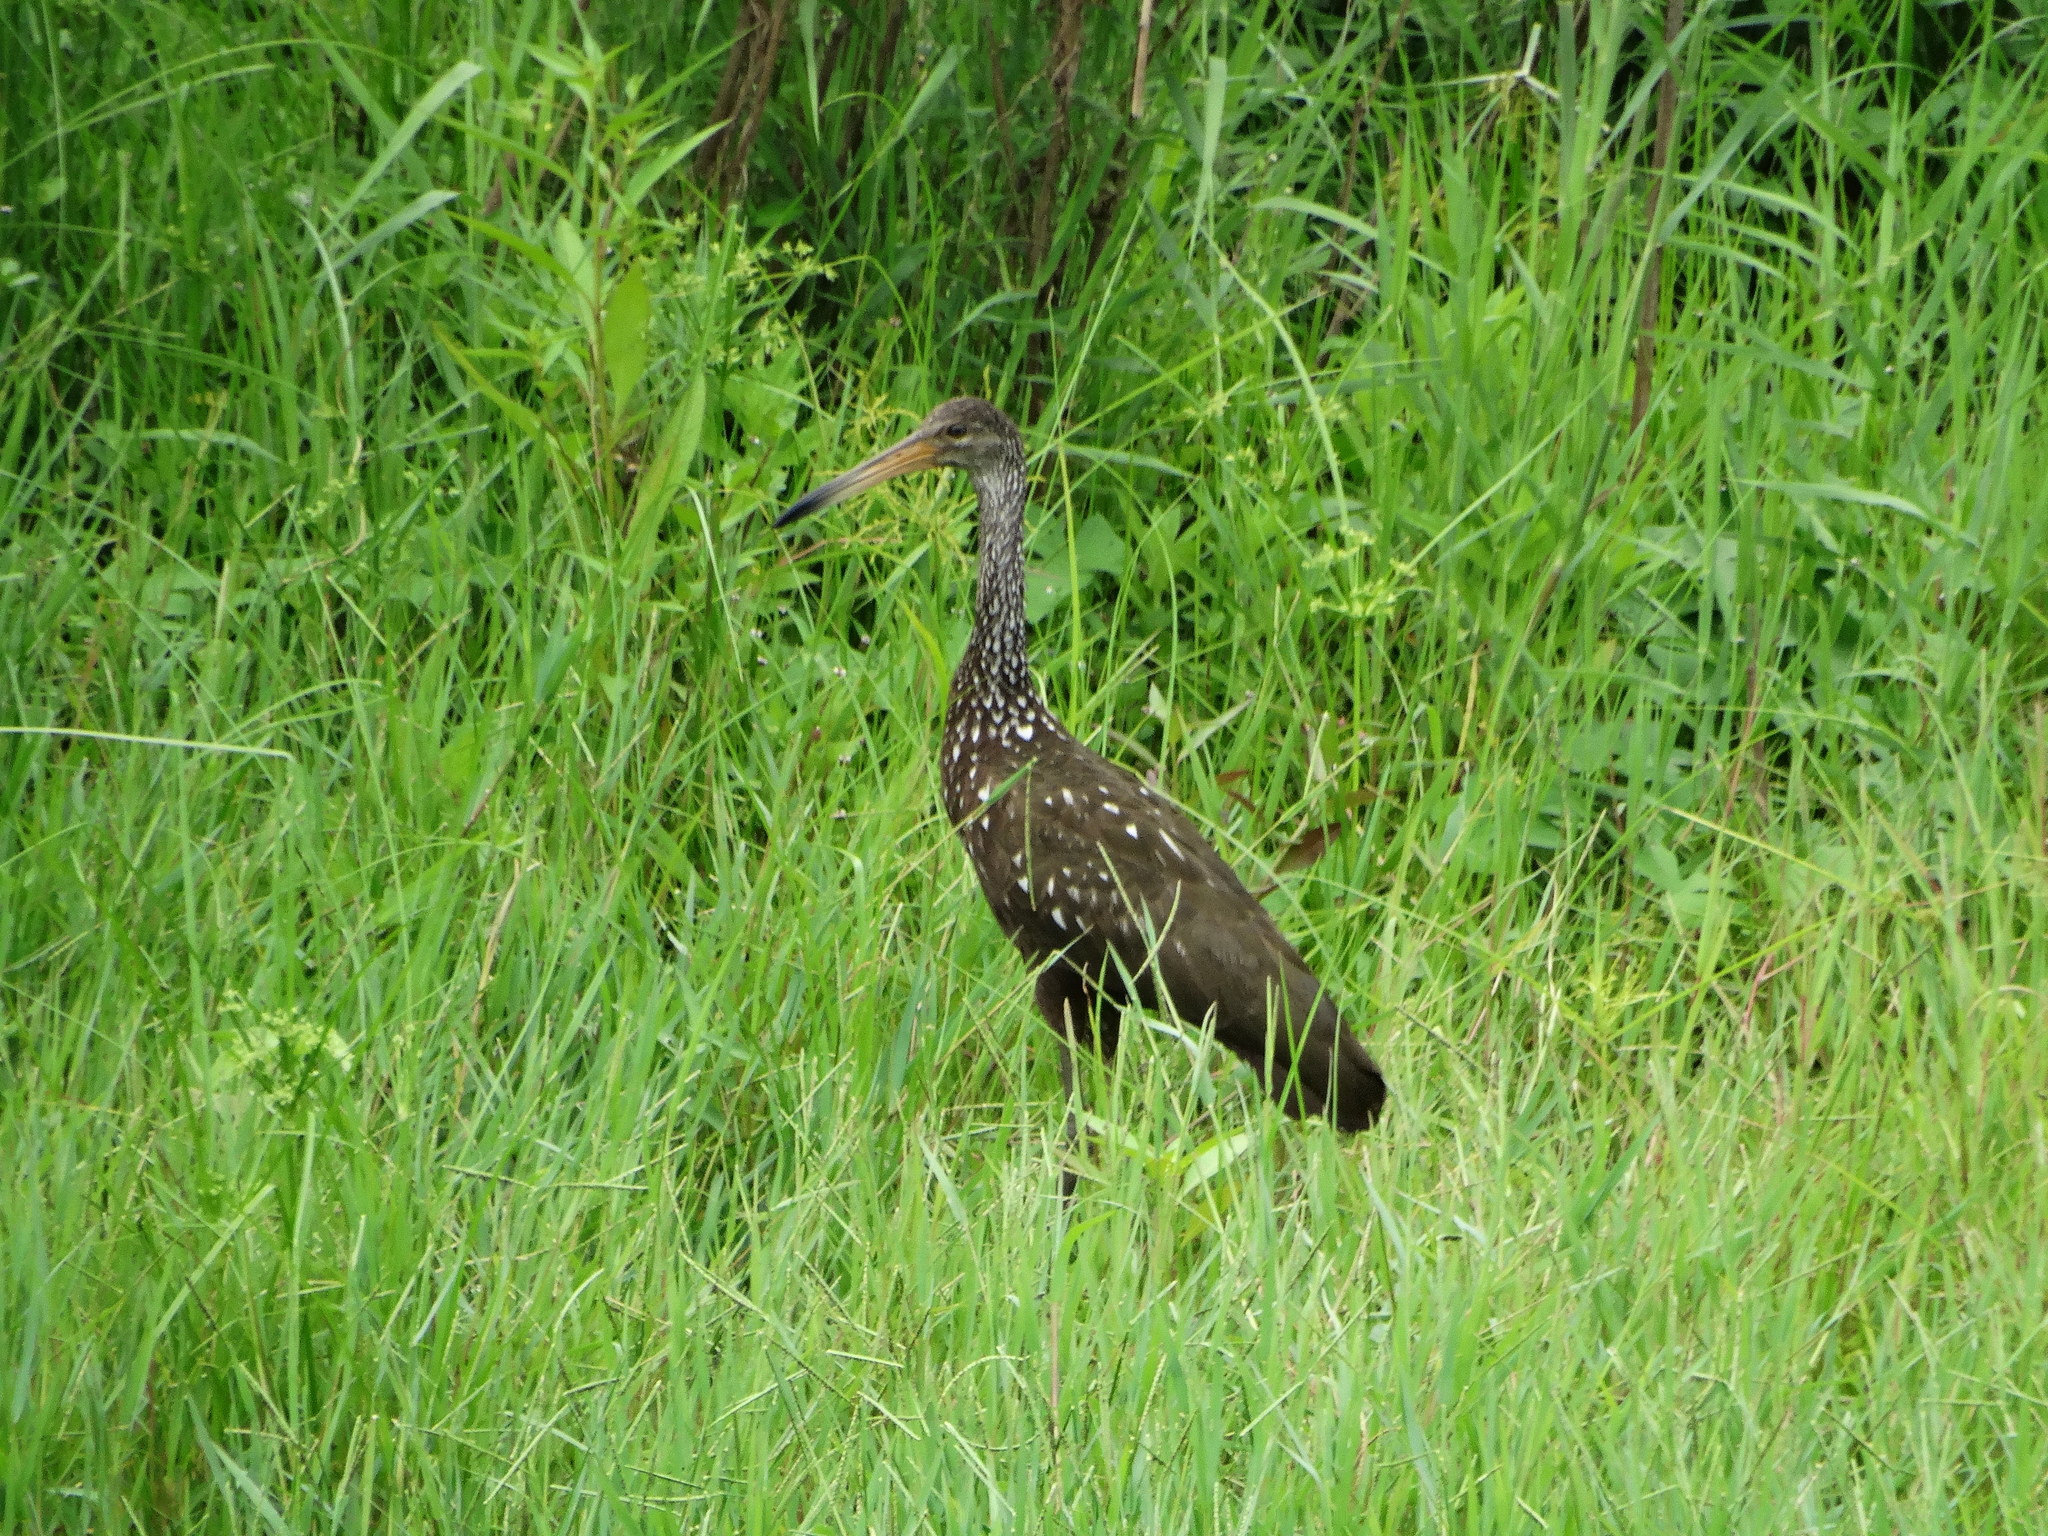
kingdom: Animalia
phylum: Chordata
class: Aves
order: Gruiformes
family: Aramidae
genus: Aramus
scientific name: Aramus guarauna
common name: Limpkin
